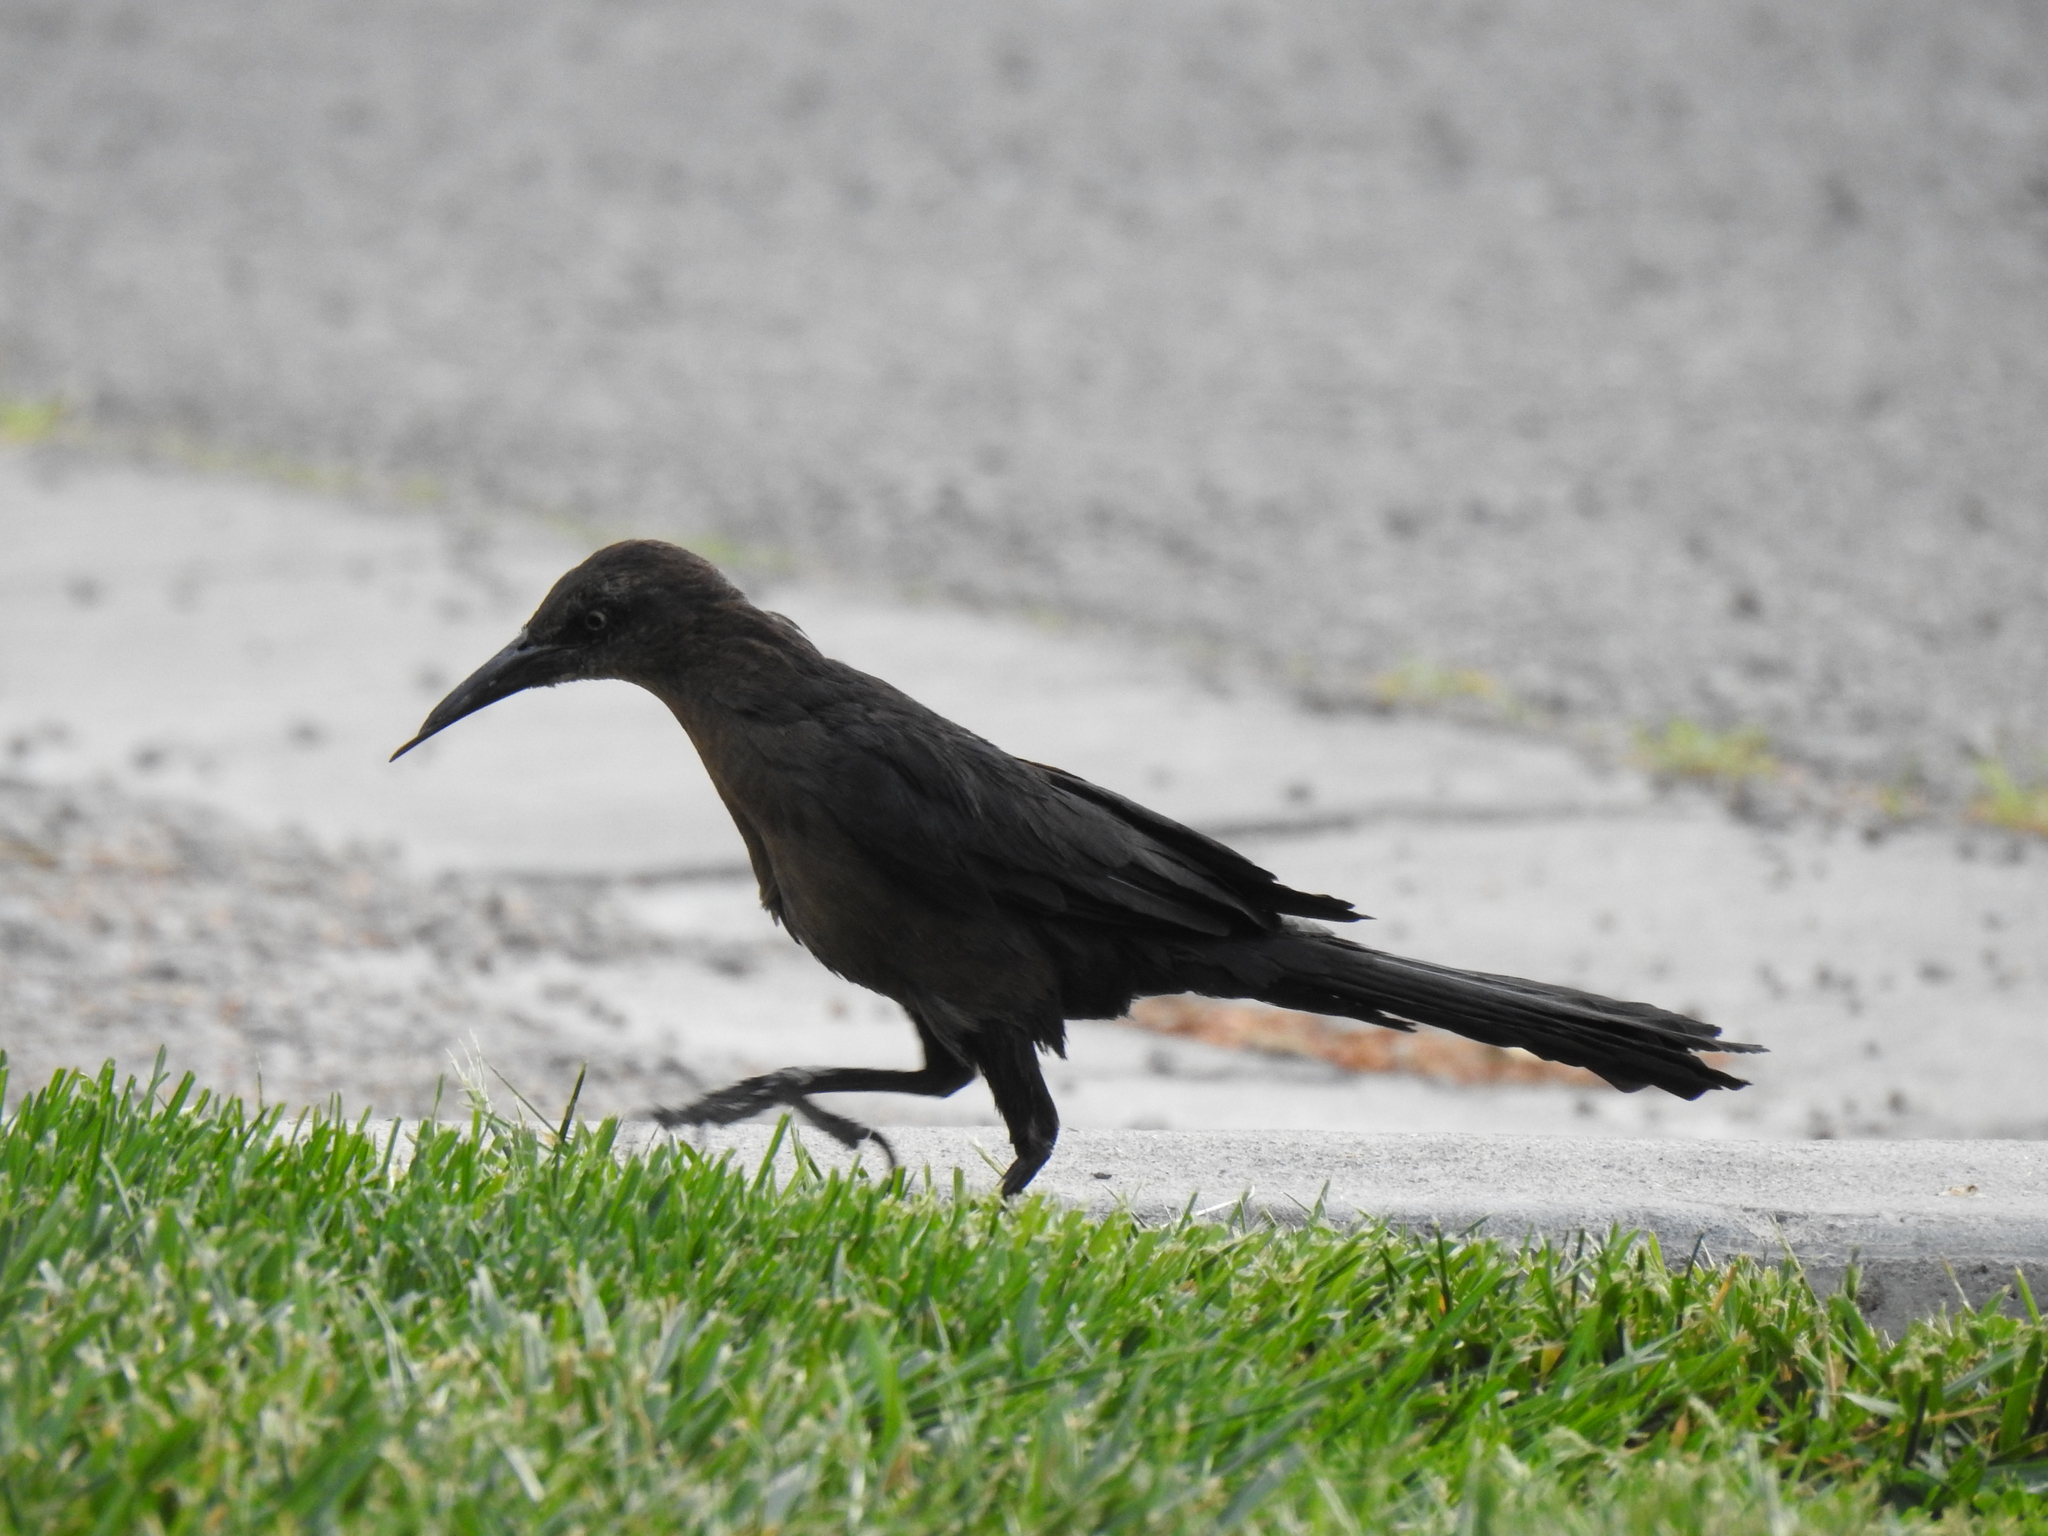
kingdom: Animalia
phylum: Chordata
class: Aves
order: Passeriformes
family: Icteridae
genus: Quiscalus
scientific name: Quiscalus mexicanus
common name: Great-tailed grackle
